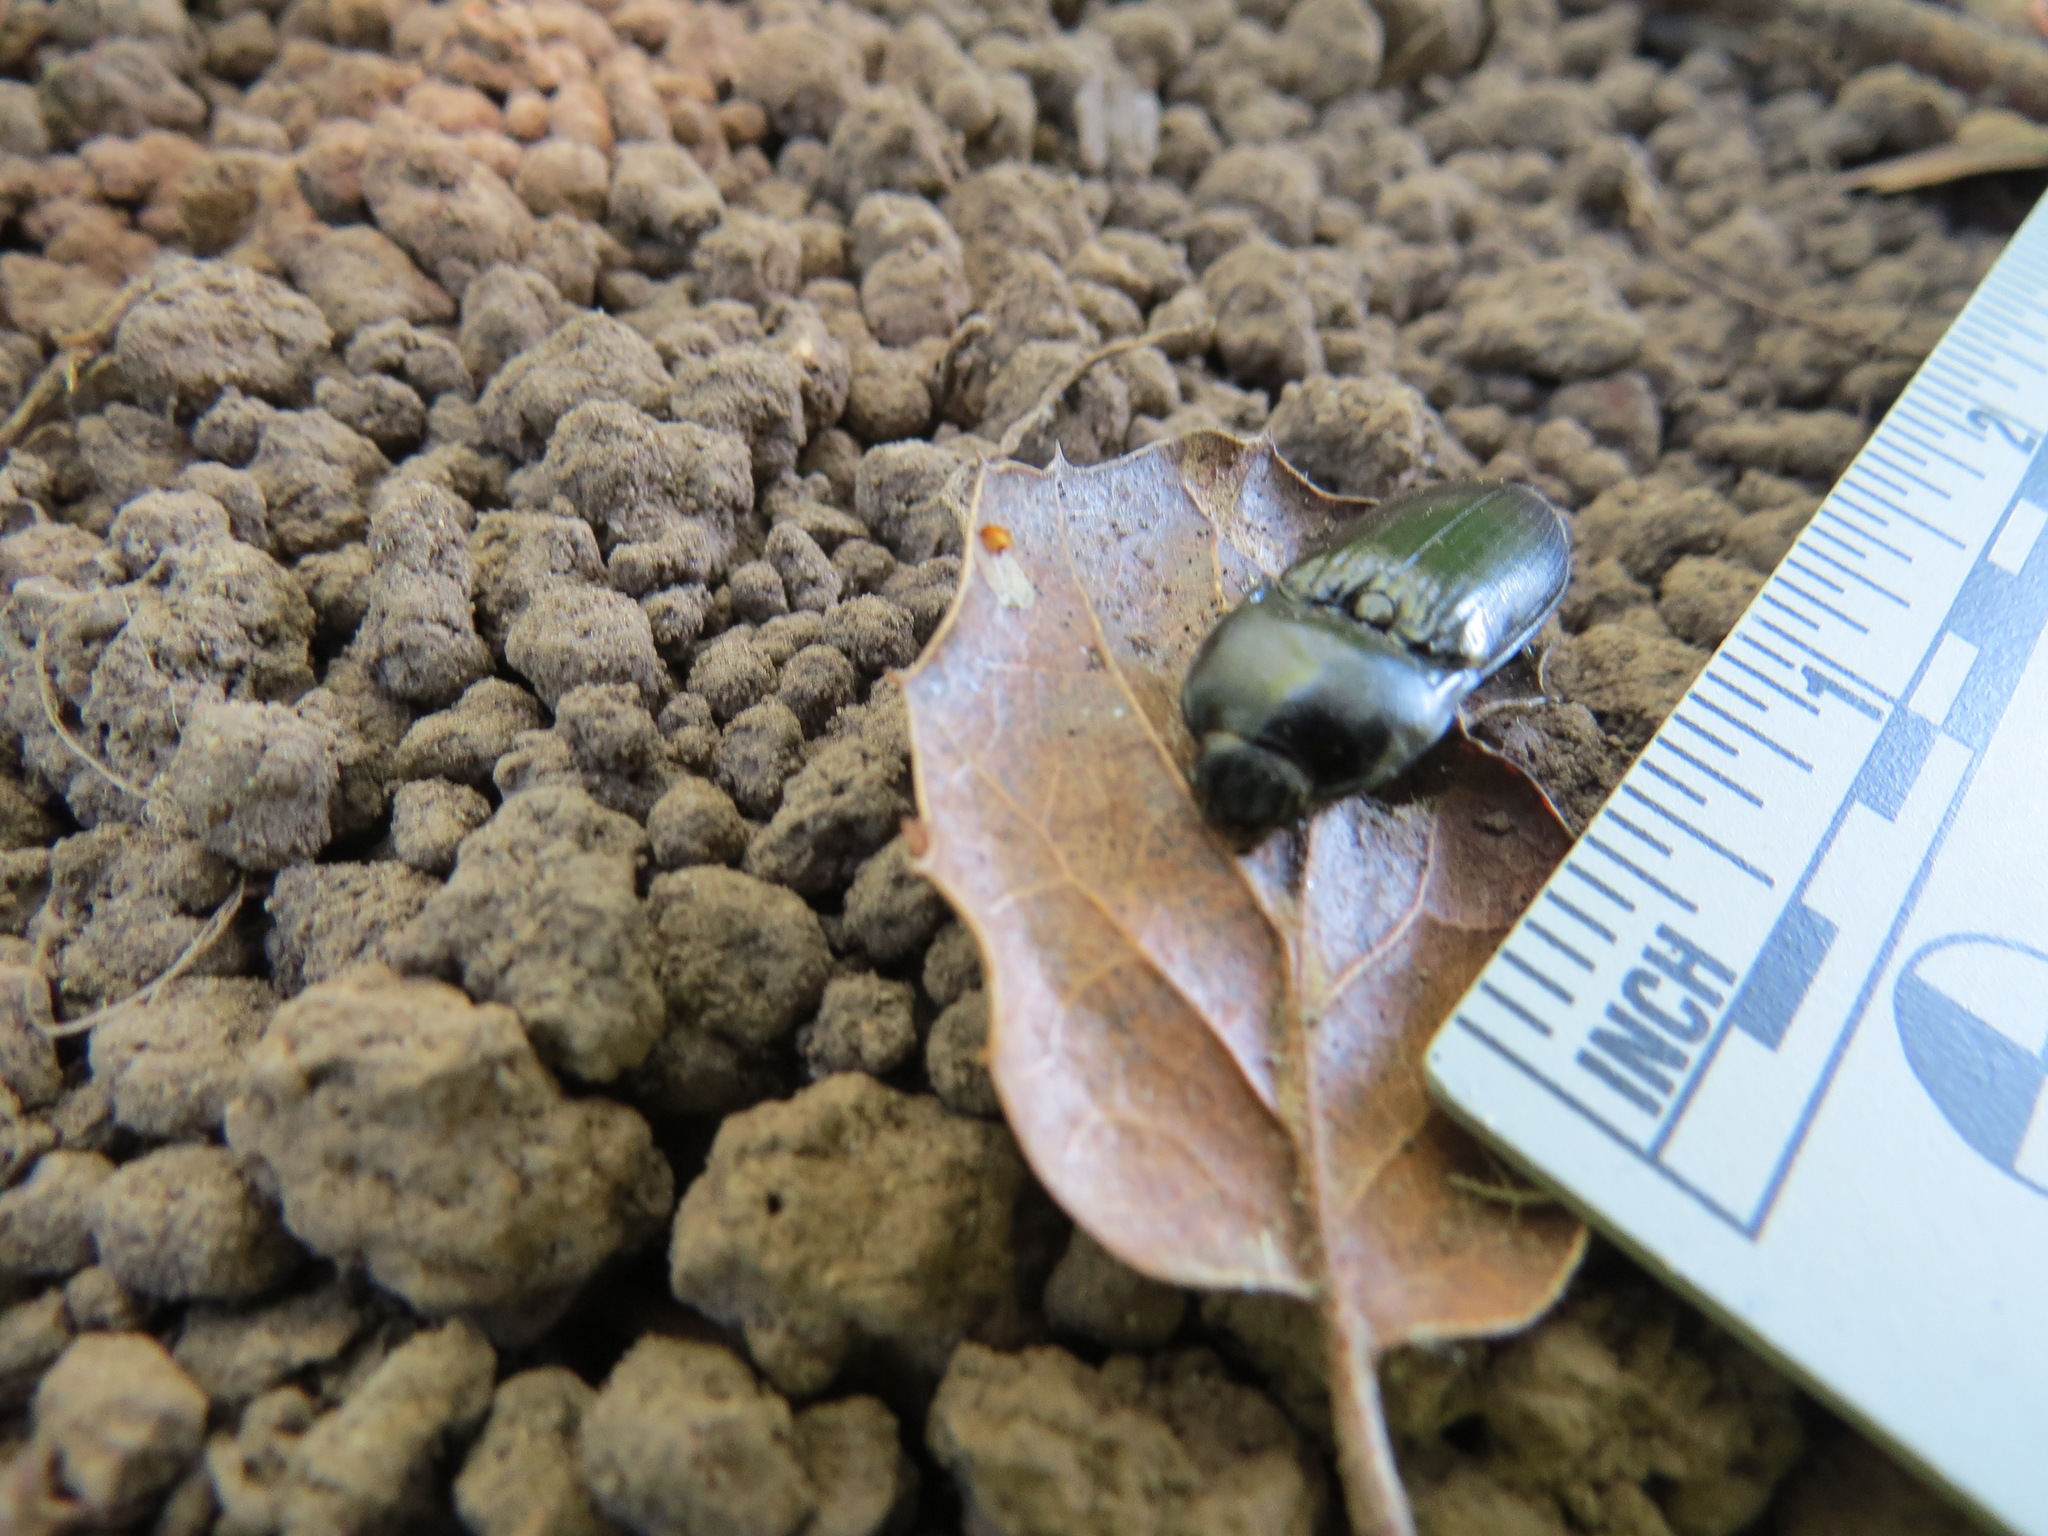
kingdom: Animalia
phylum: Arthropoda
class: Insecta
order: Coleoptera
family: Elateridae
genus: Melanactes
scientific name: Melanactes
